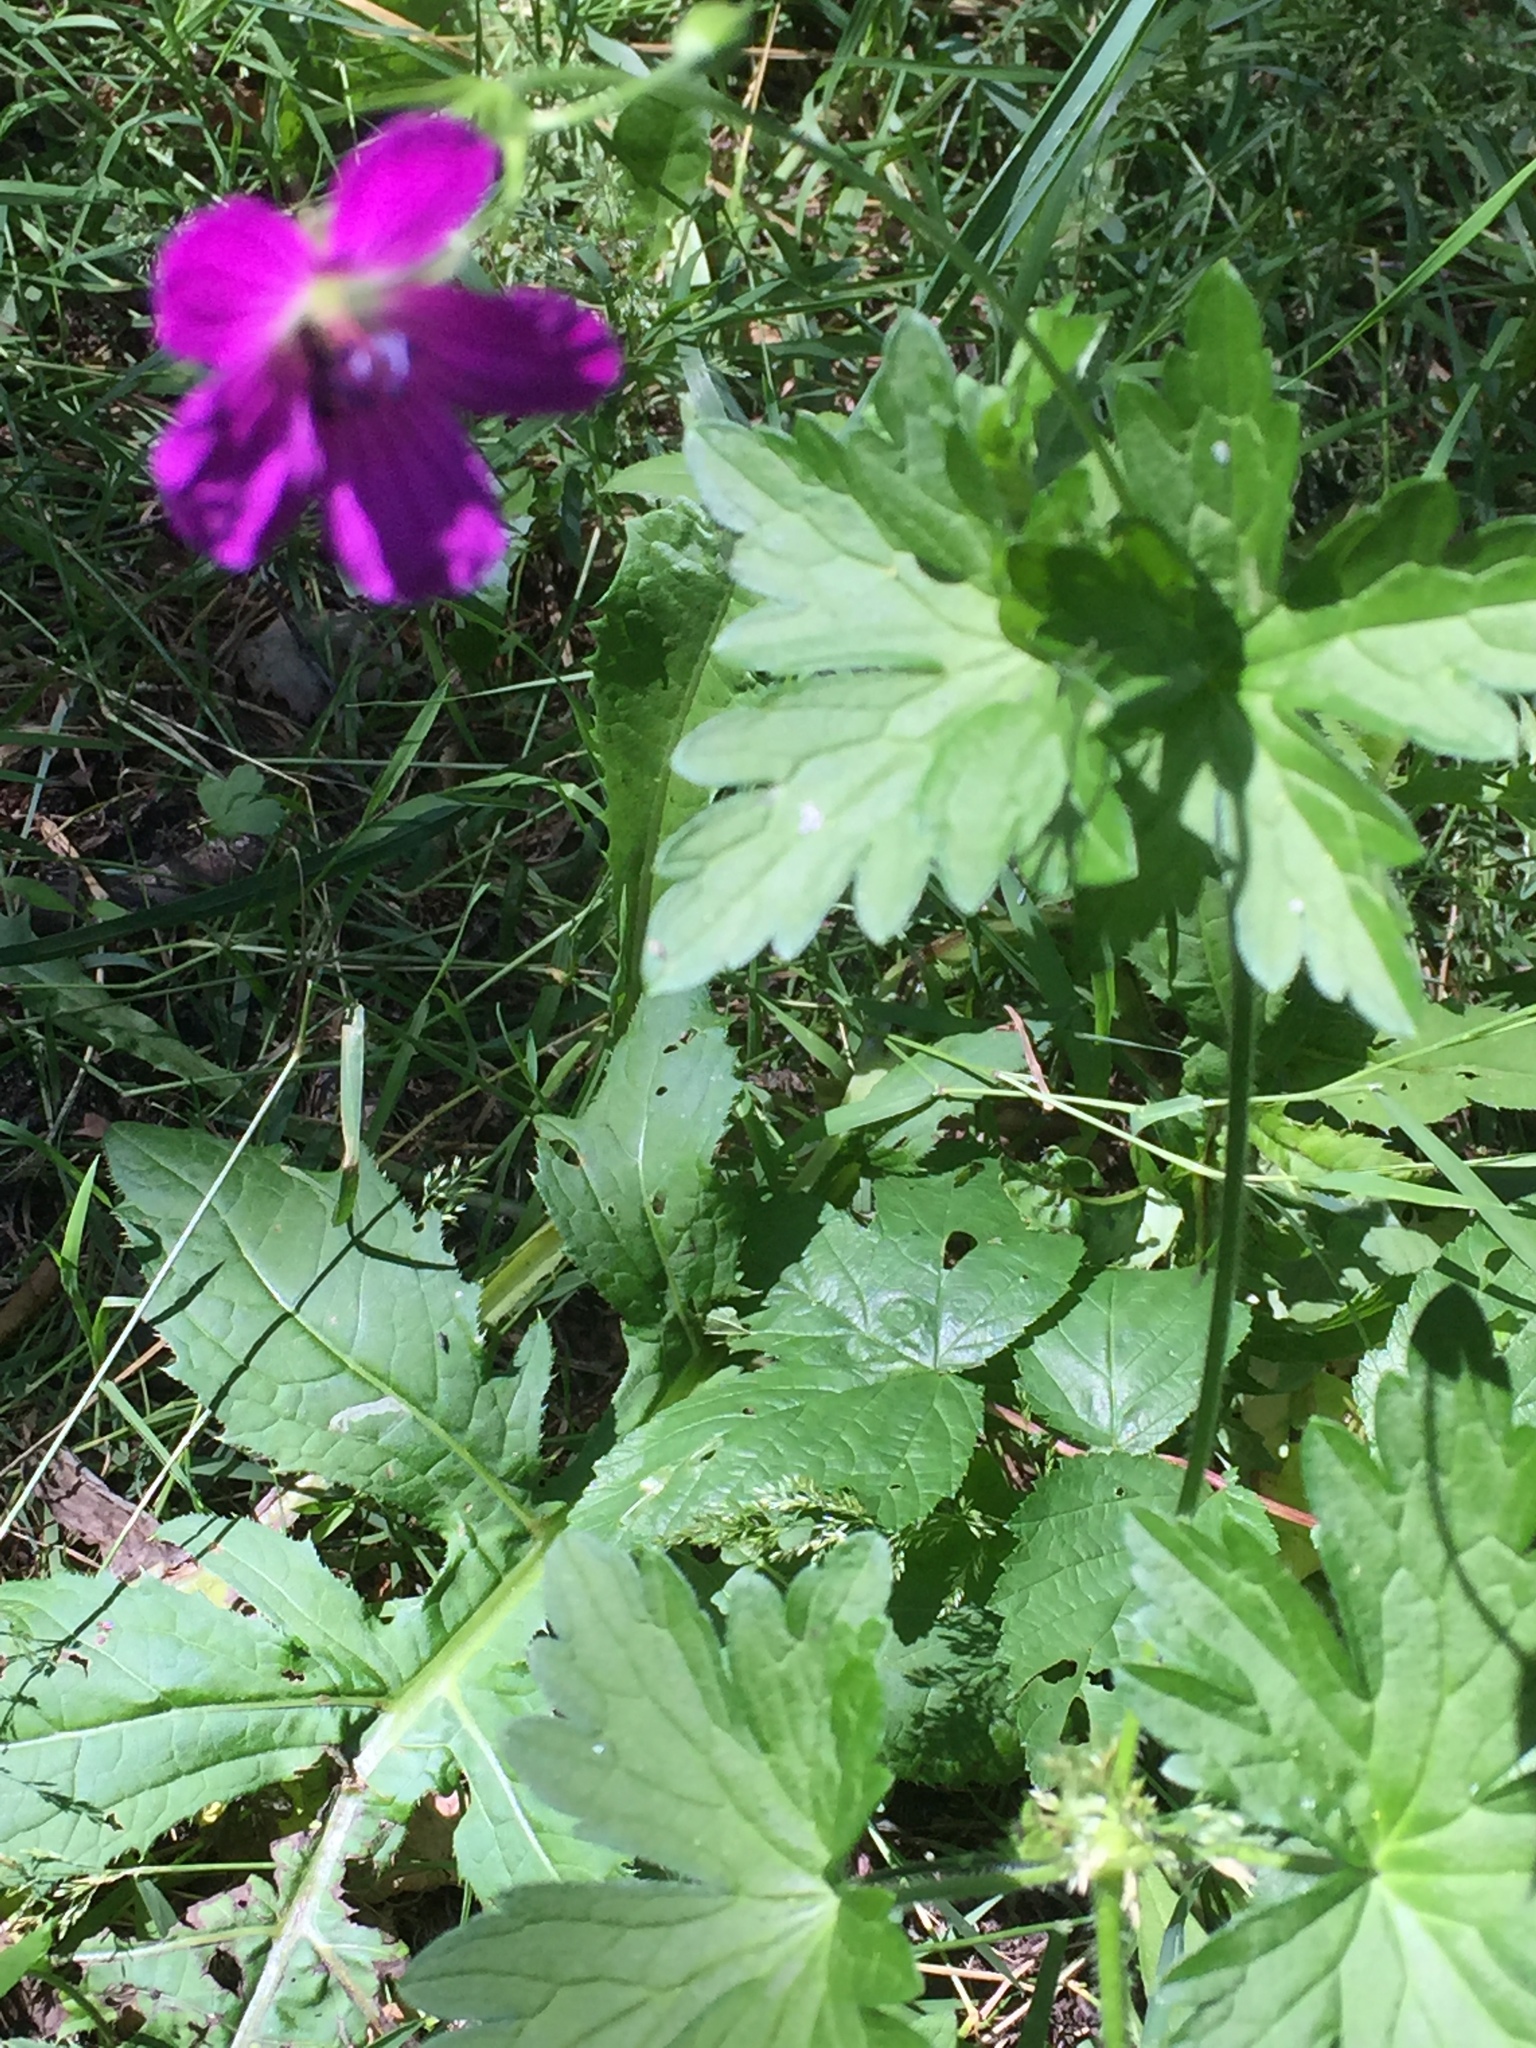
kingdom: Plantae
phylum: Tracheophyta
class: Magnoliopsida
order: Geraniales
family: Geraniaceae
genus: Geranium
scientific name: Geranium palustre
